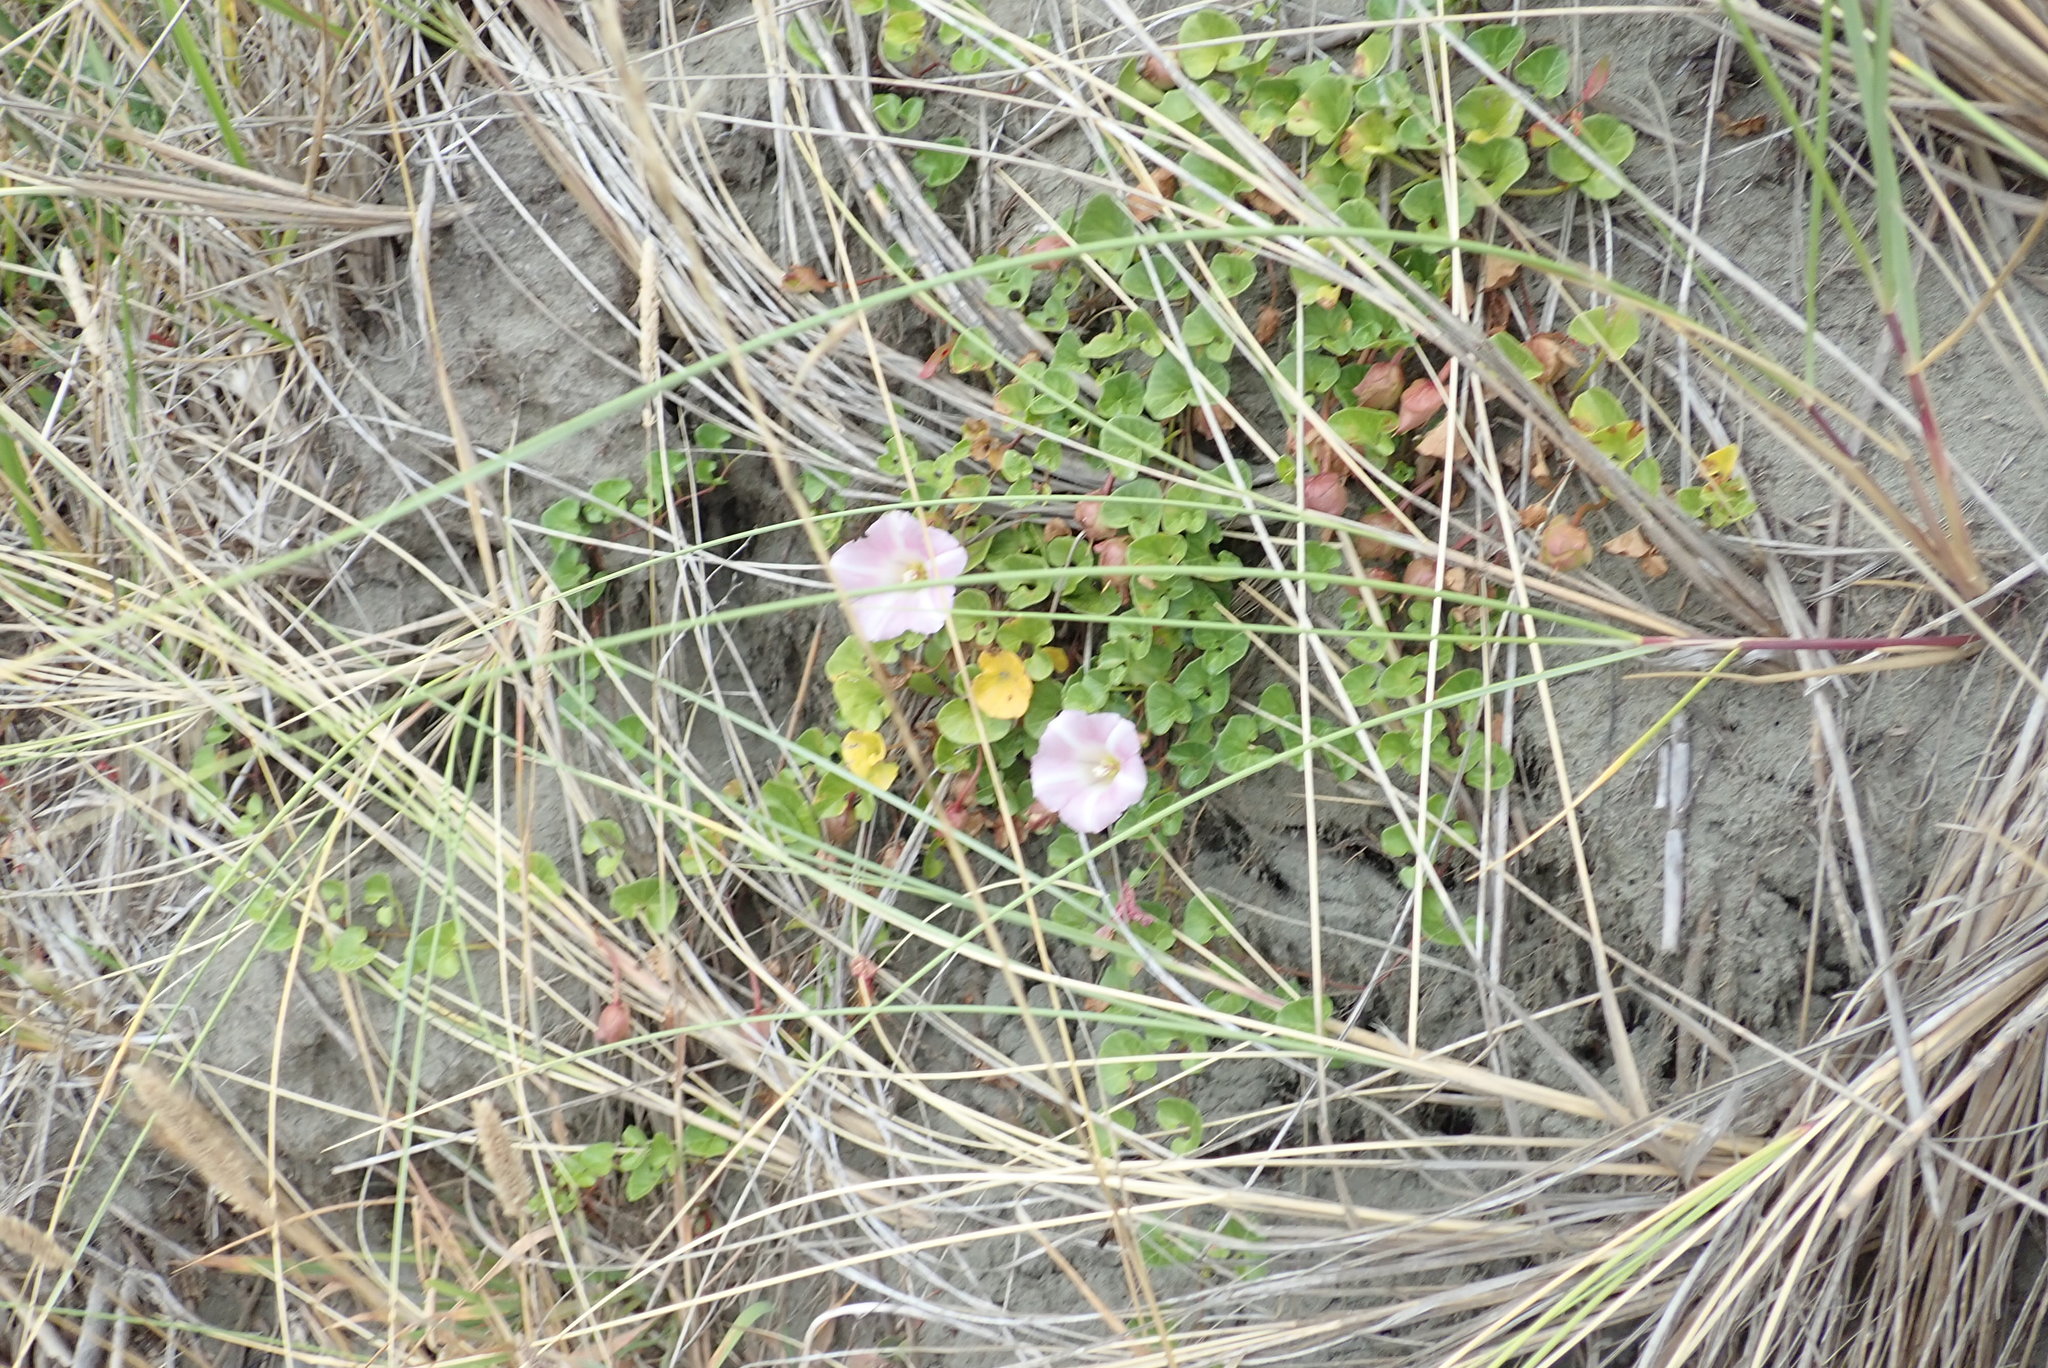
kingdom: Plantae
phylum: Tracheophyta
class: Magnoliopsida
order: Solanales
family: Convolvulaceae
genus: Calystegia
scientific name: Calystegia soldanella
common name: Sea bindweed
